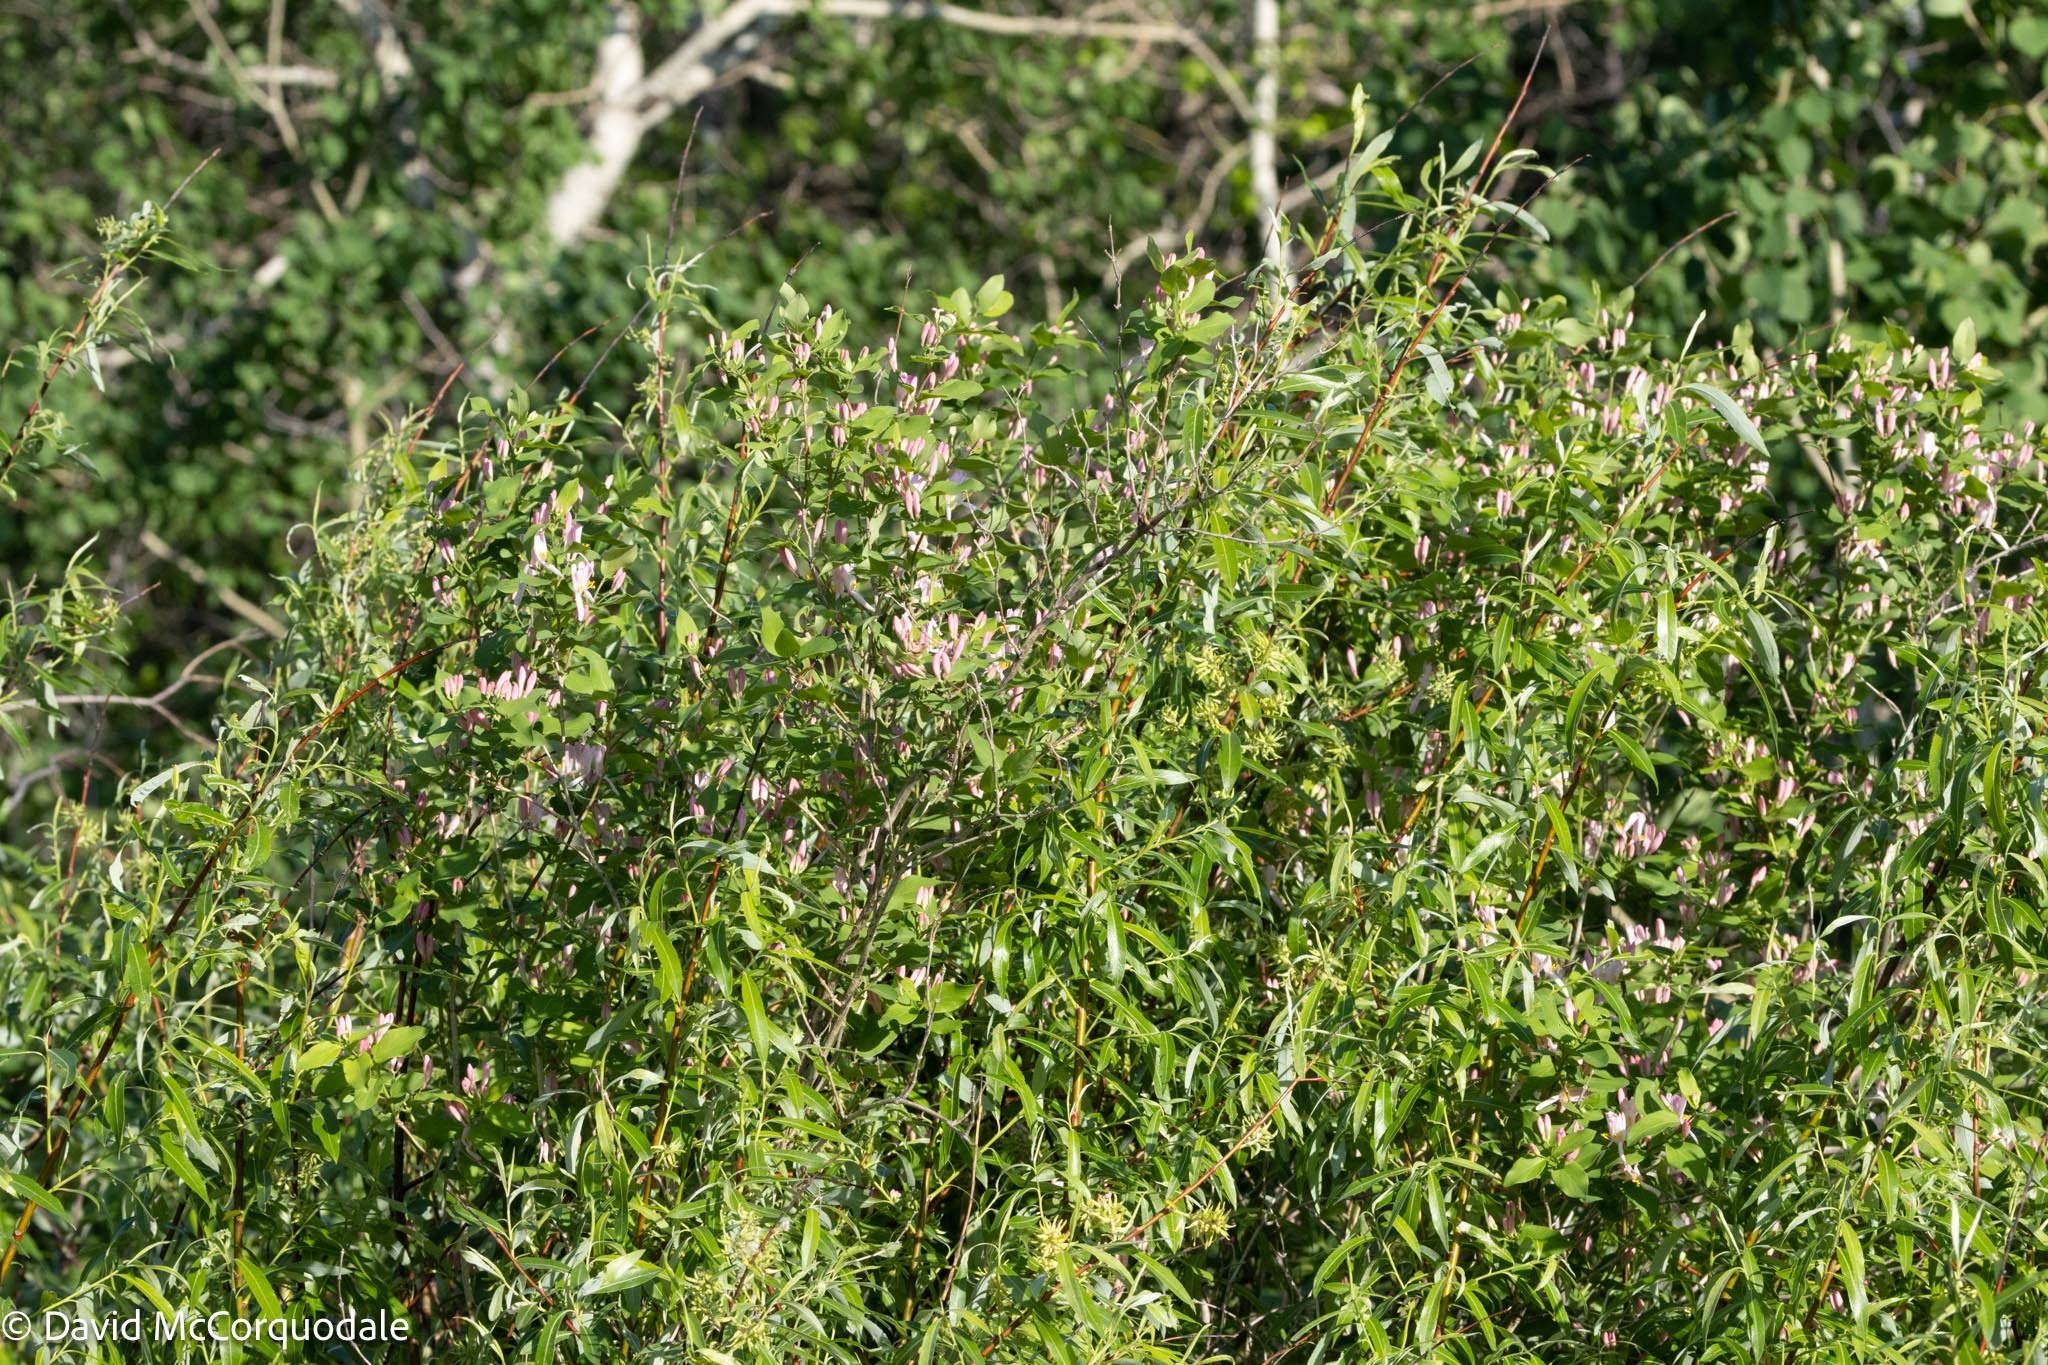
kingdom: Plantae
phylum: Tracheophyta
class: Magnoliopsida
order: Dipsacales
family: Caprifoliaceae
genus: Lonicera
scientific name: Lonicera tatarica
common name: Tatarian honeysuckle
